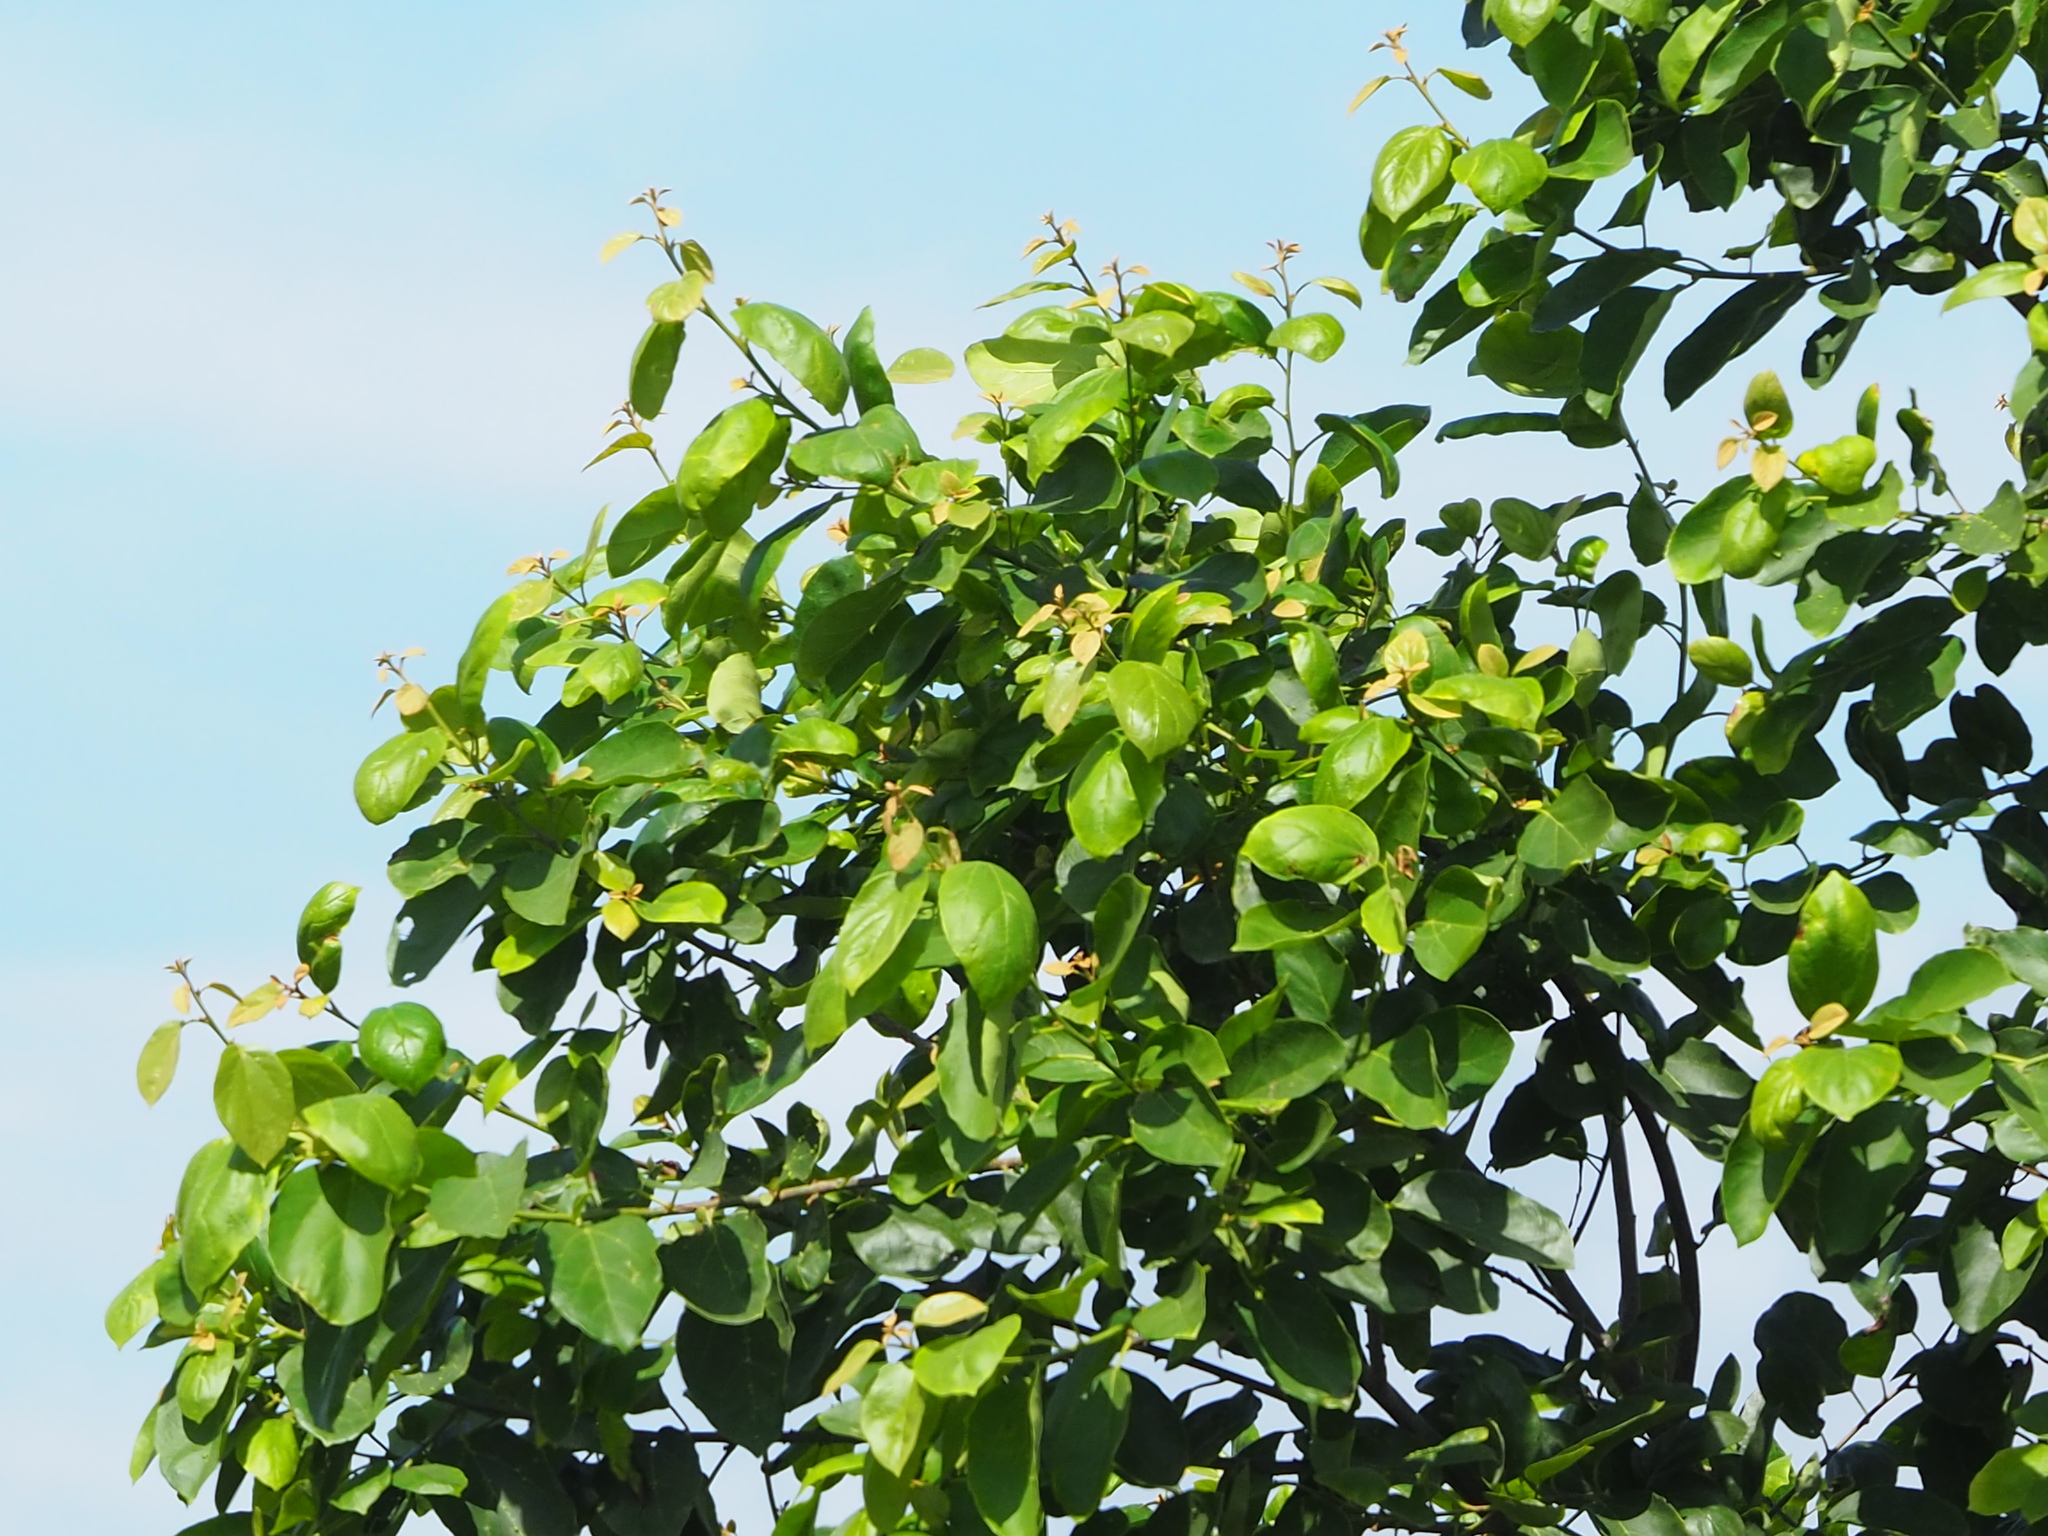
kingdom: Plantae
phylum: Tracheophyta
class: Magnoliopsida
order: Boraginales
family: Cordiaceae
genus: Cordia
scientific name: Cordia dichotoma
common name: Fragrant manjack
